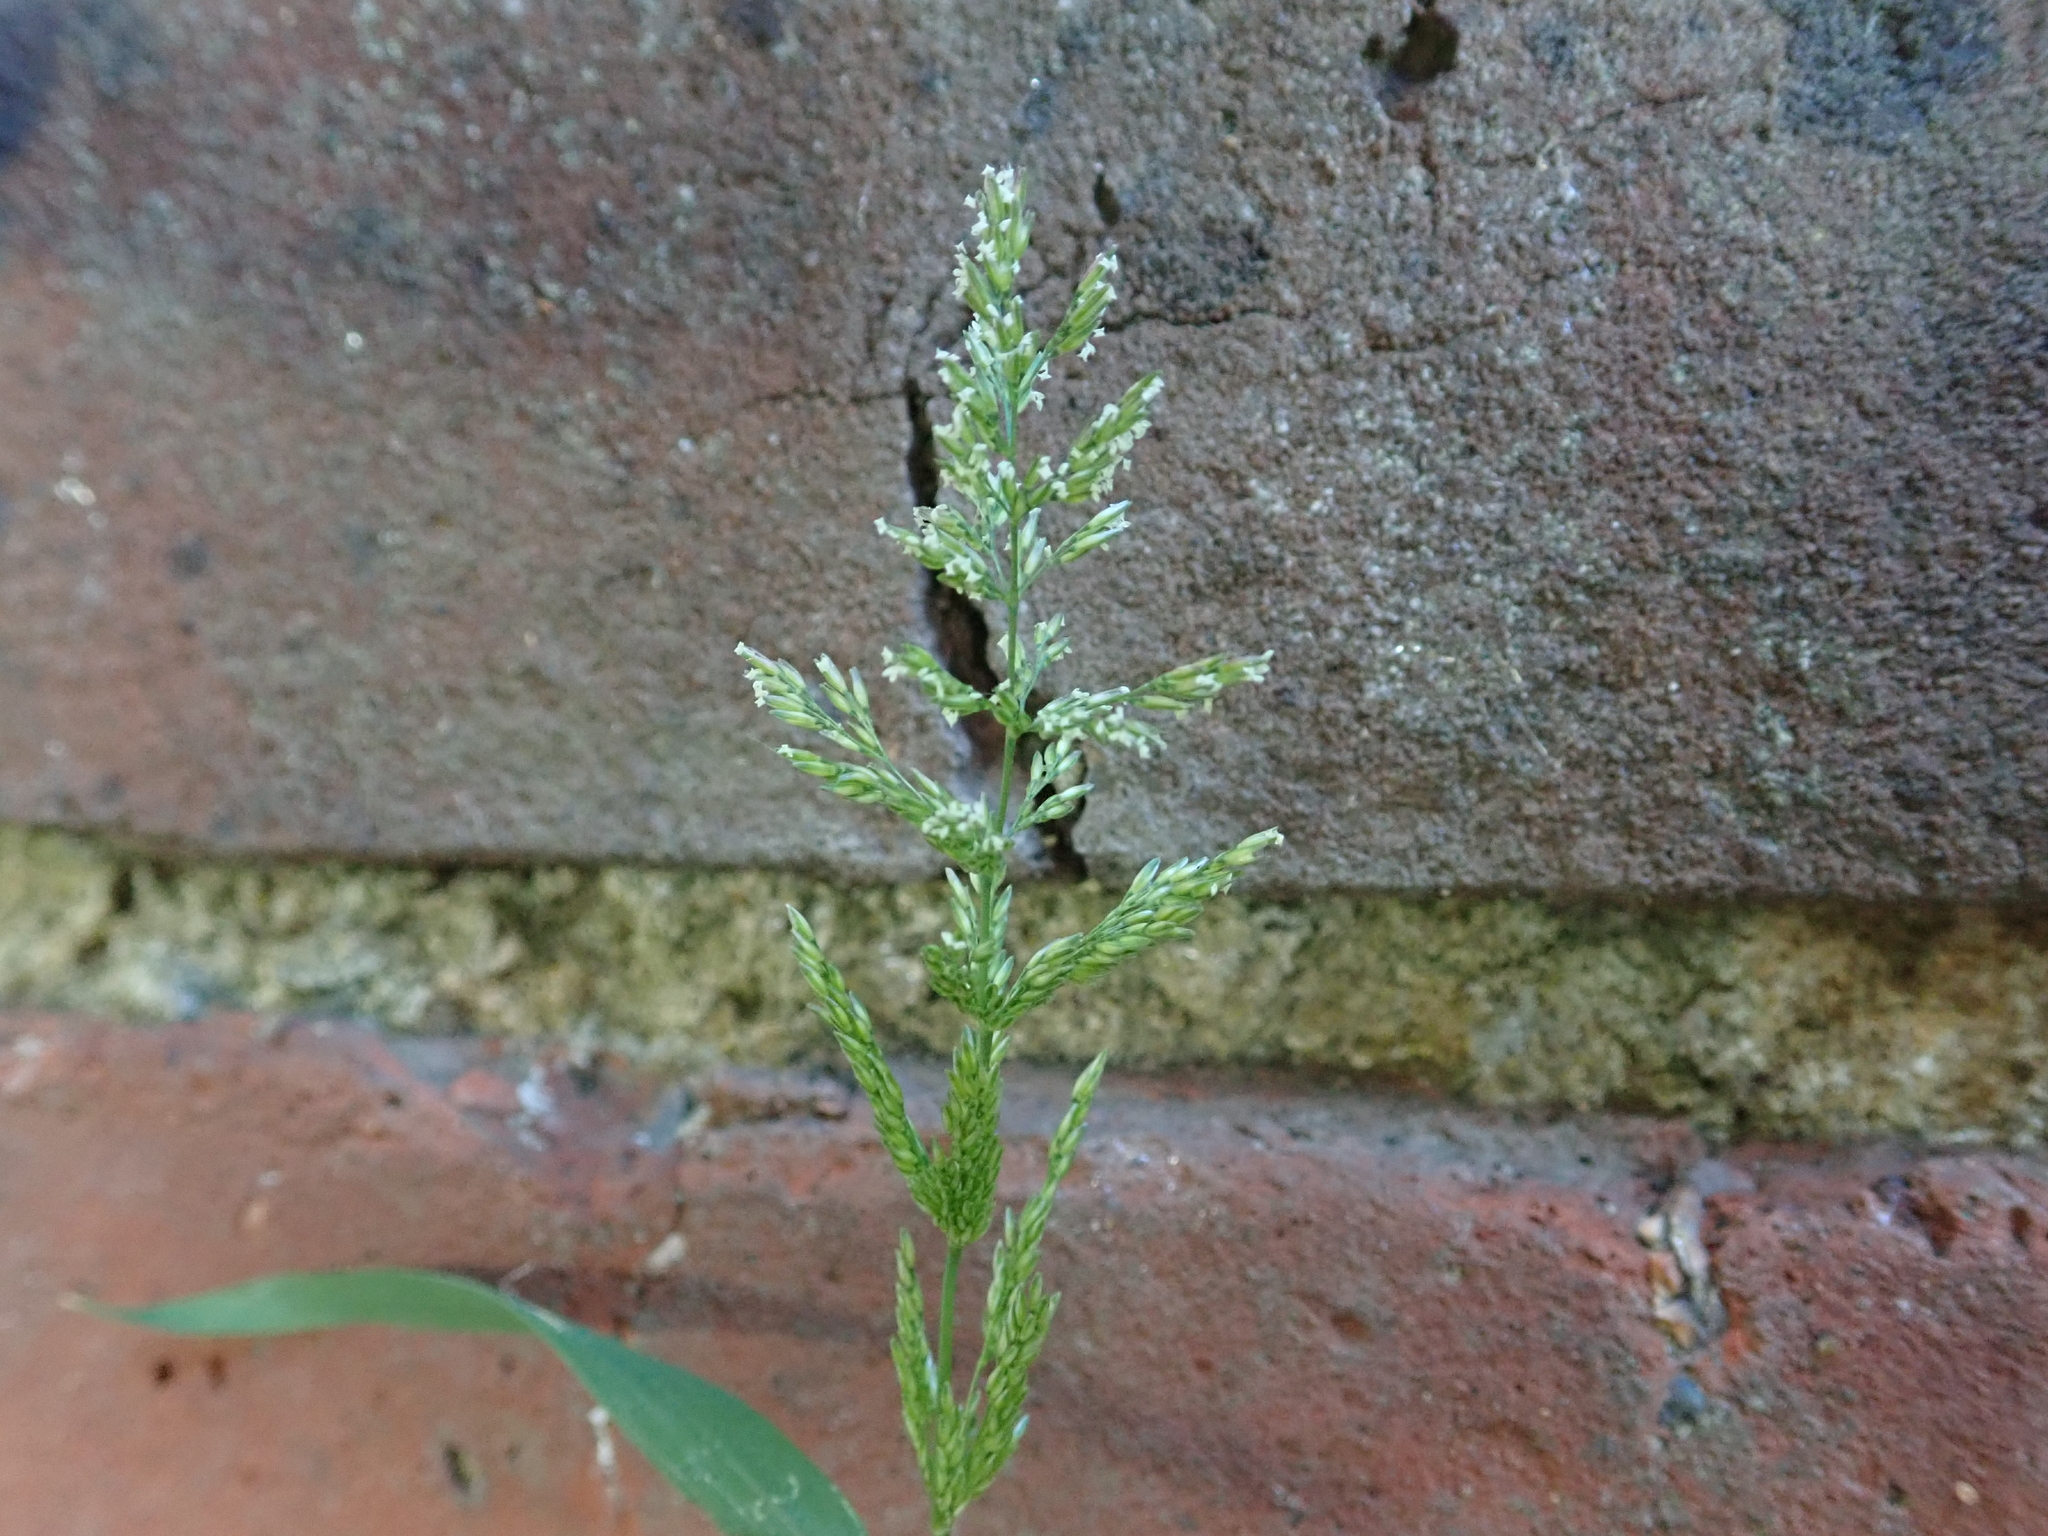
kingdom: Plantae
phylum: Tracheophyta
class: Liliopsida
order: Poales
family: Poaceae
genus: Polypogon
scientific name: Polypogon viridis
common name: Water bent
